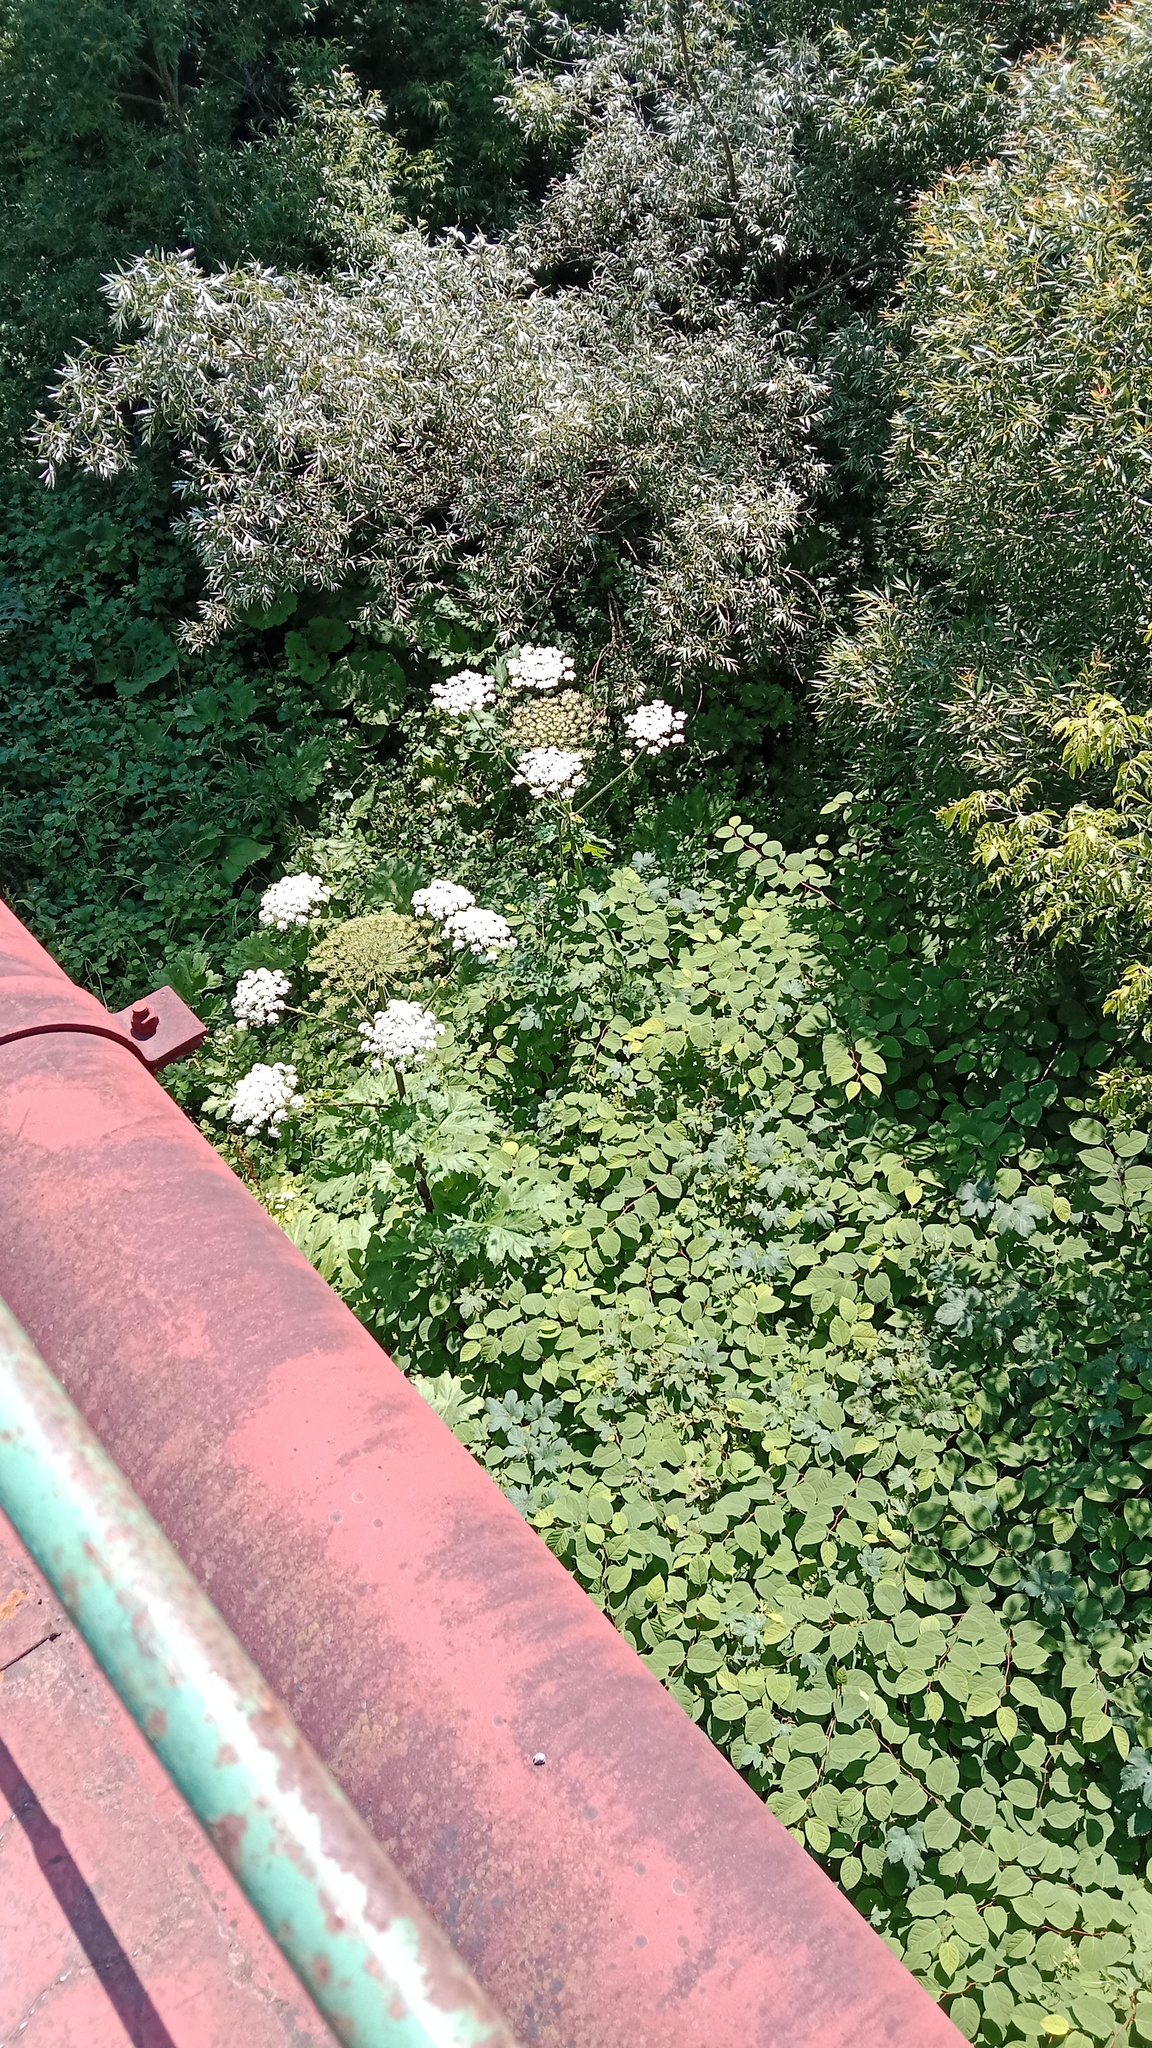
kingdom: Plantae
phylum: Tracheophyta
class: Magnoliopsida
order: Apiales
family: Apiaceae
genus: Heracleum
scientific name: Heracleum sosnowskyi
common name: Sosnowsky's hogweed
